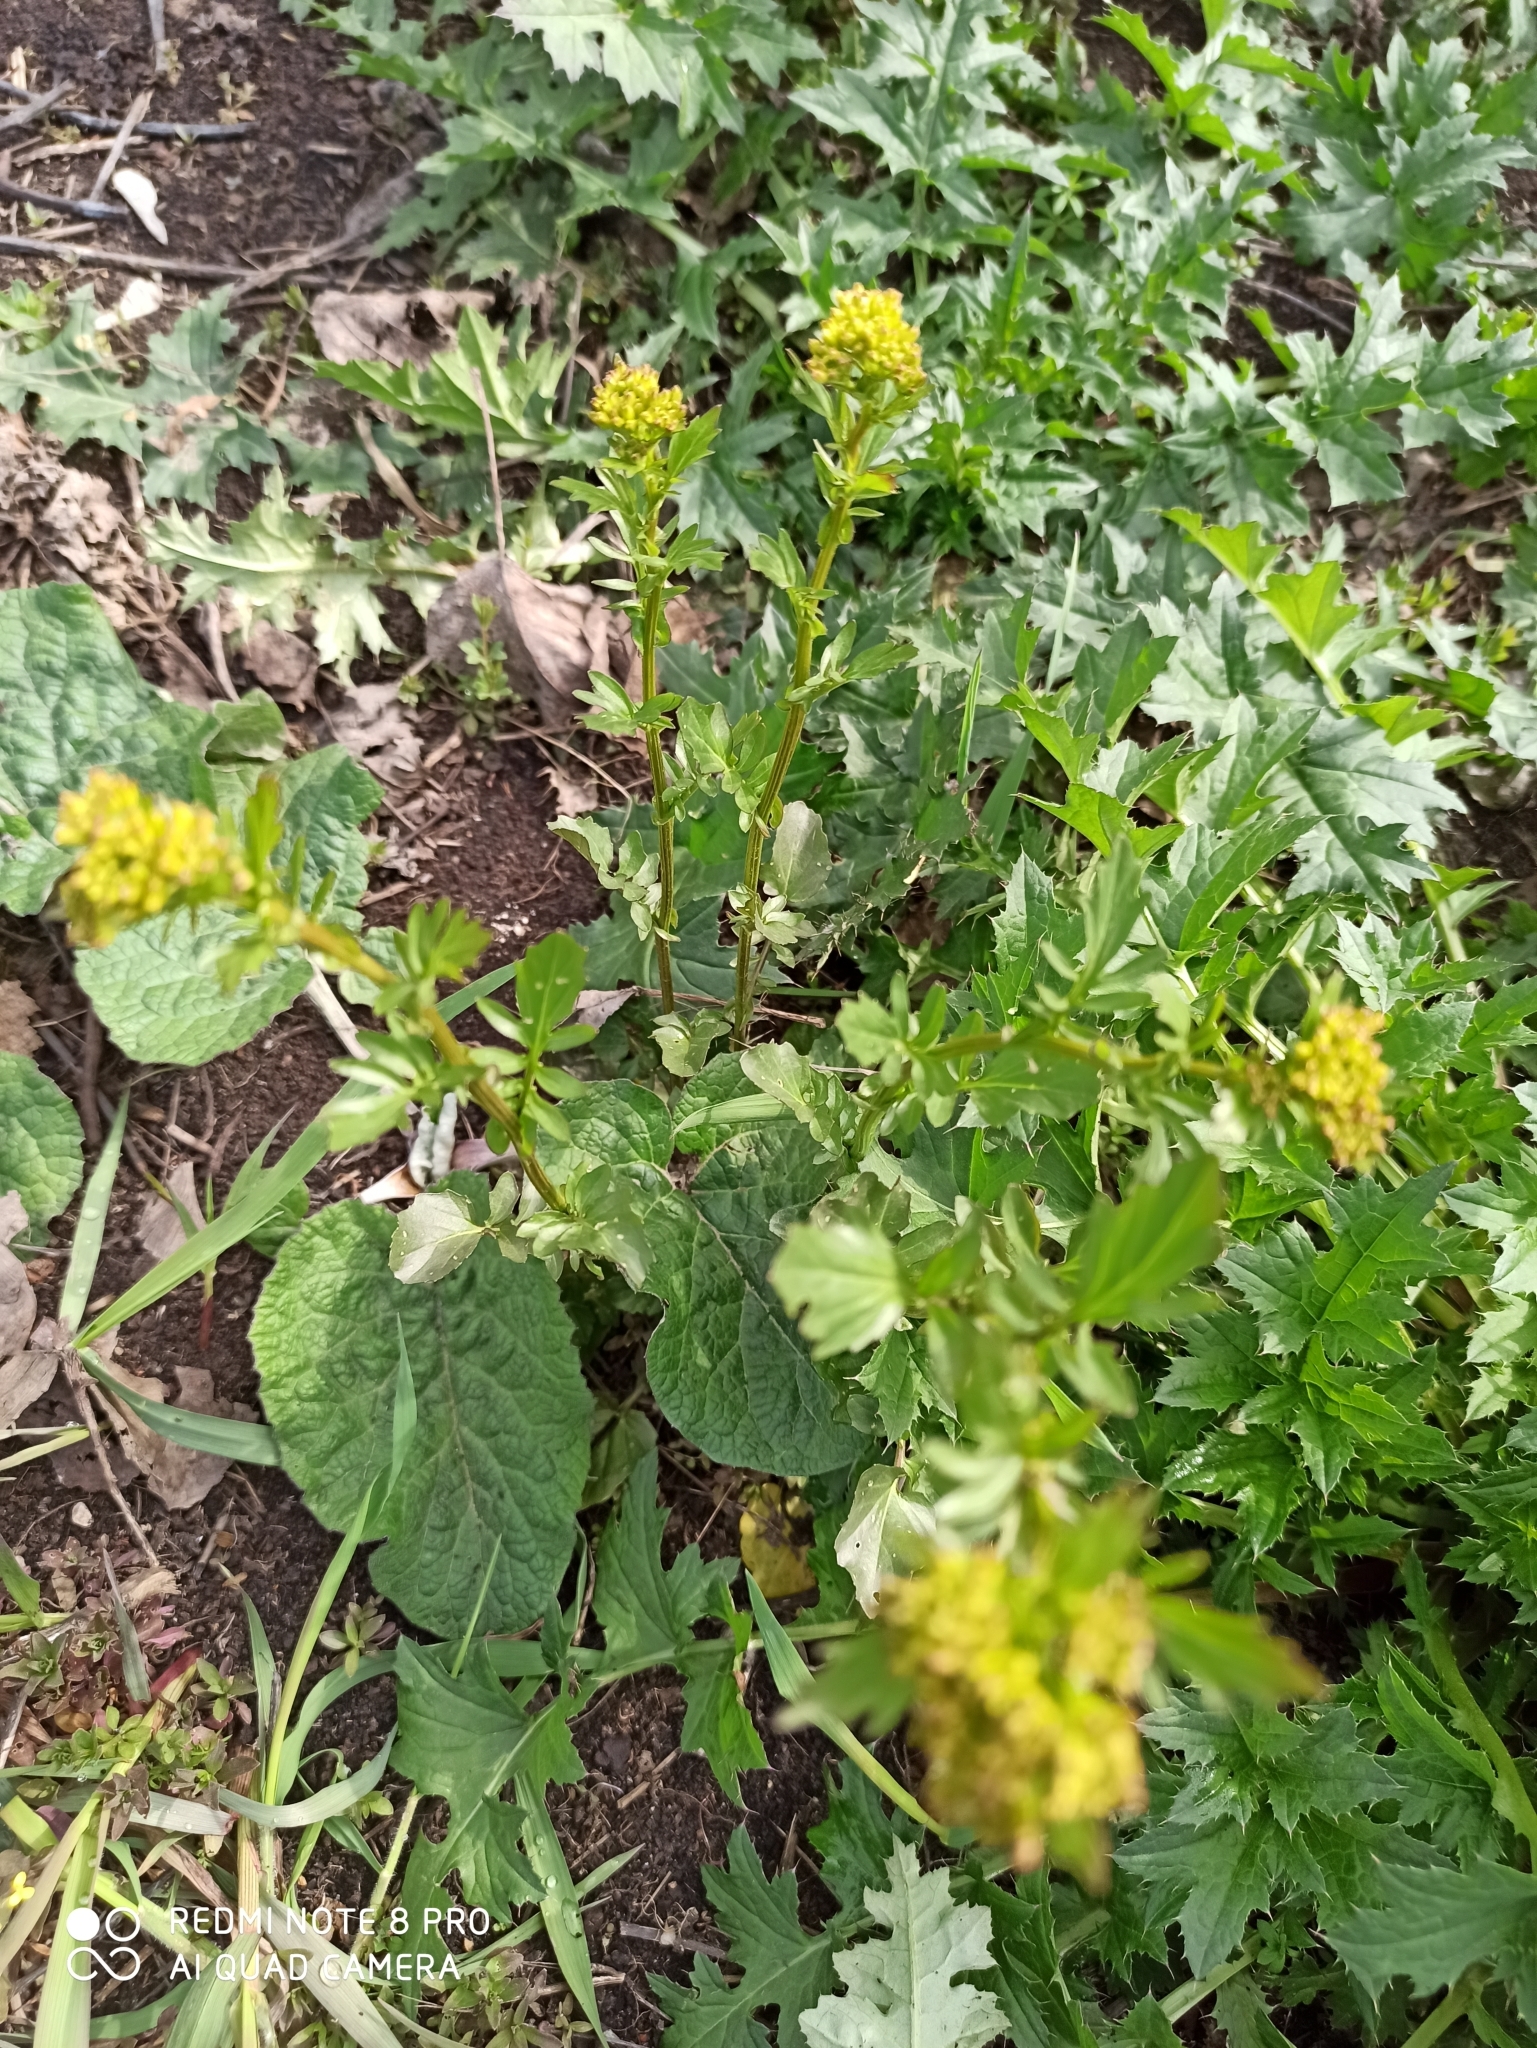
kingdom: Plantae
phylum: Tracheophyta
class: Magnoliopsida
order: Brassicales
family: Brassicaceae
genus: Barbarea
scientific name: Barbarea vulgaris
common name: Cressy-greens
